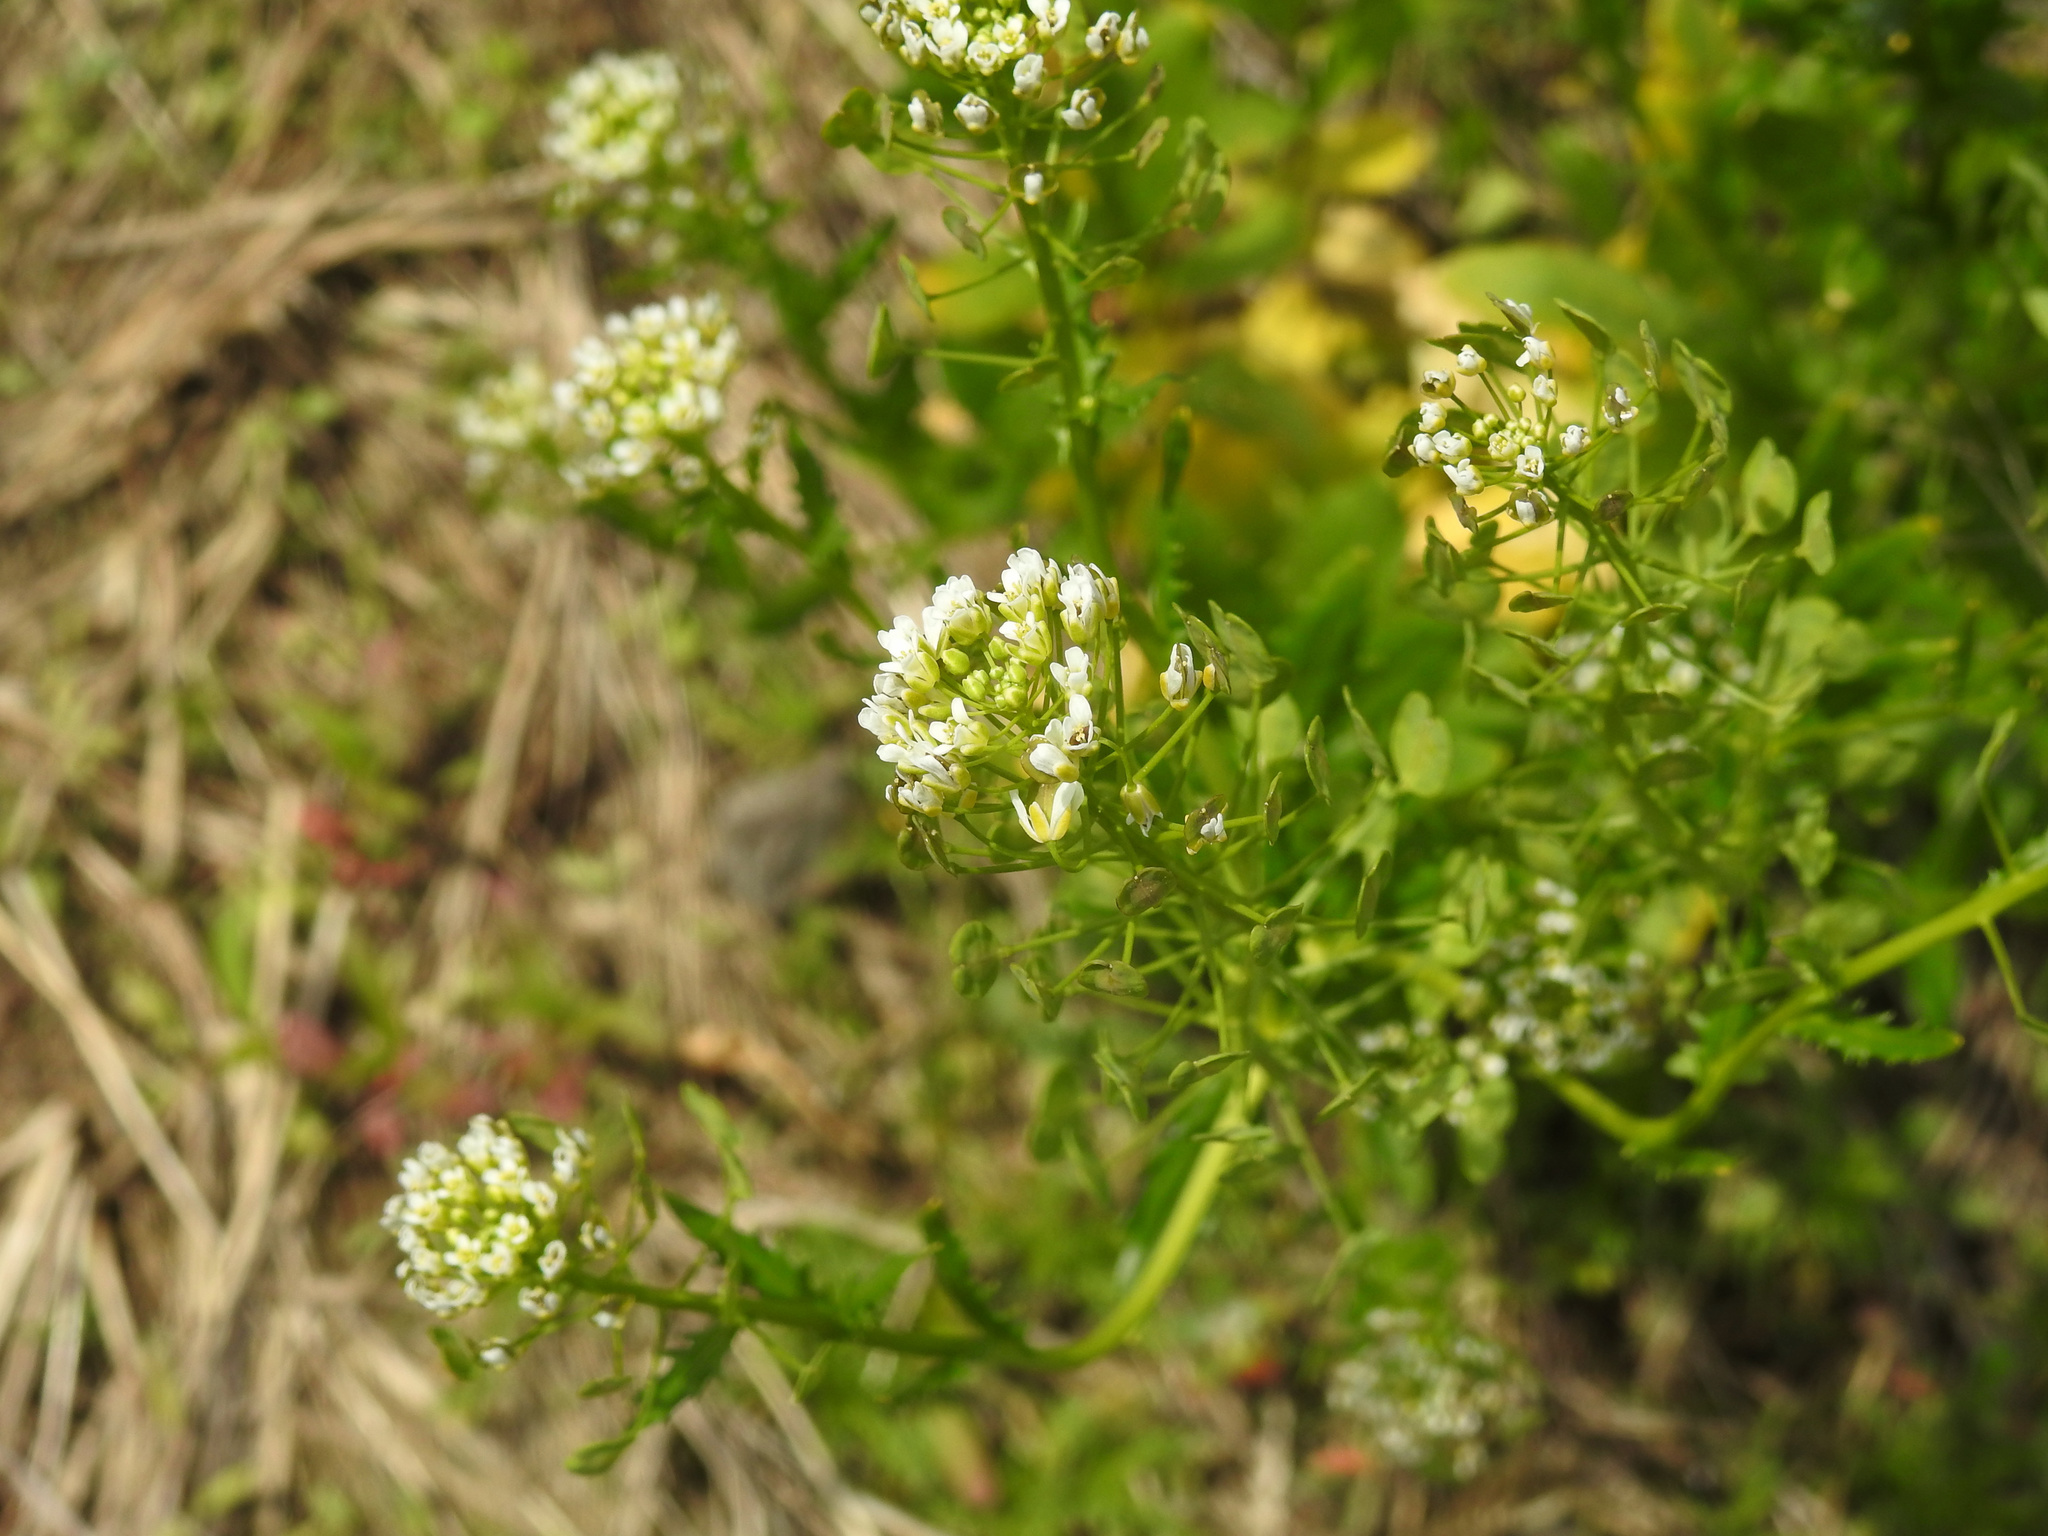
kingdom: Plantae
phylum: Tracheophyta
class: Magnoliopsida
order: Brassicales
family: Brassicaceae
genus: Thlaspi
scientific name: Thlaspi arvense
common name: Field pennycress
